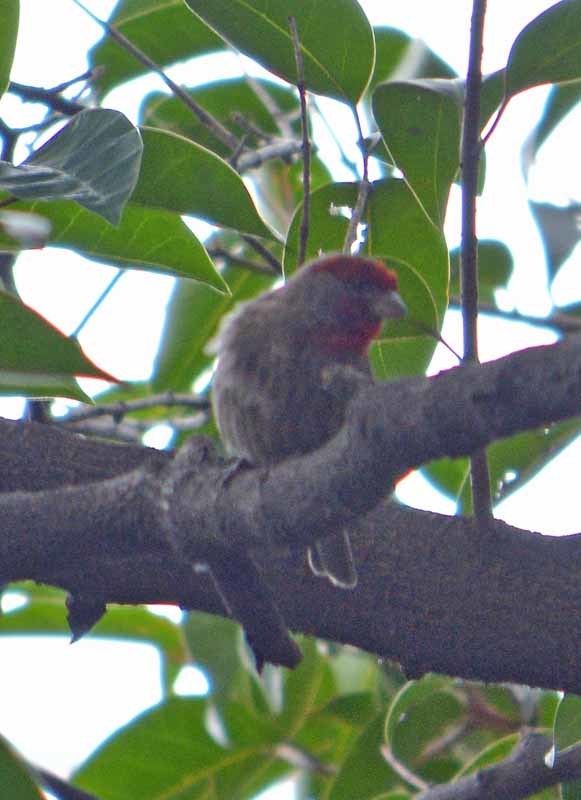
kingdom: Animalia
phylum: Chordata
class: Aves
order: Passeriformes
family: Fringillidae
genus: Haemorhous
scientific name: Haemorhous mexicanus
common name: House finch
